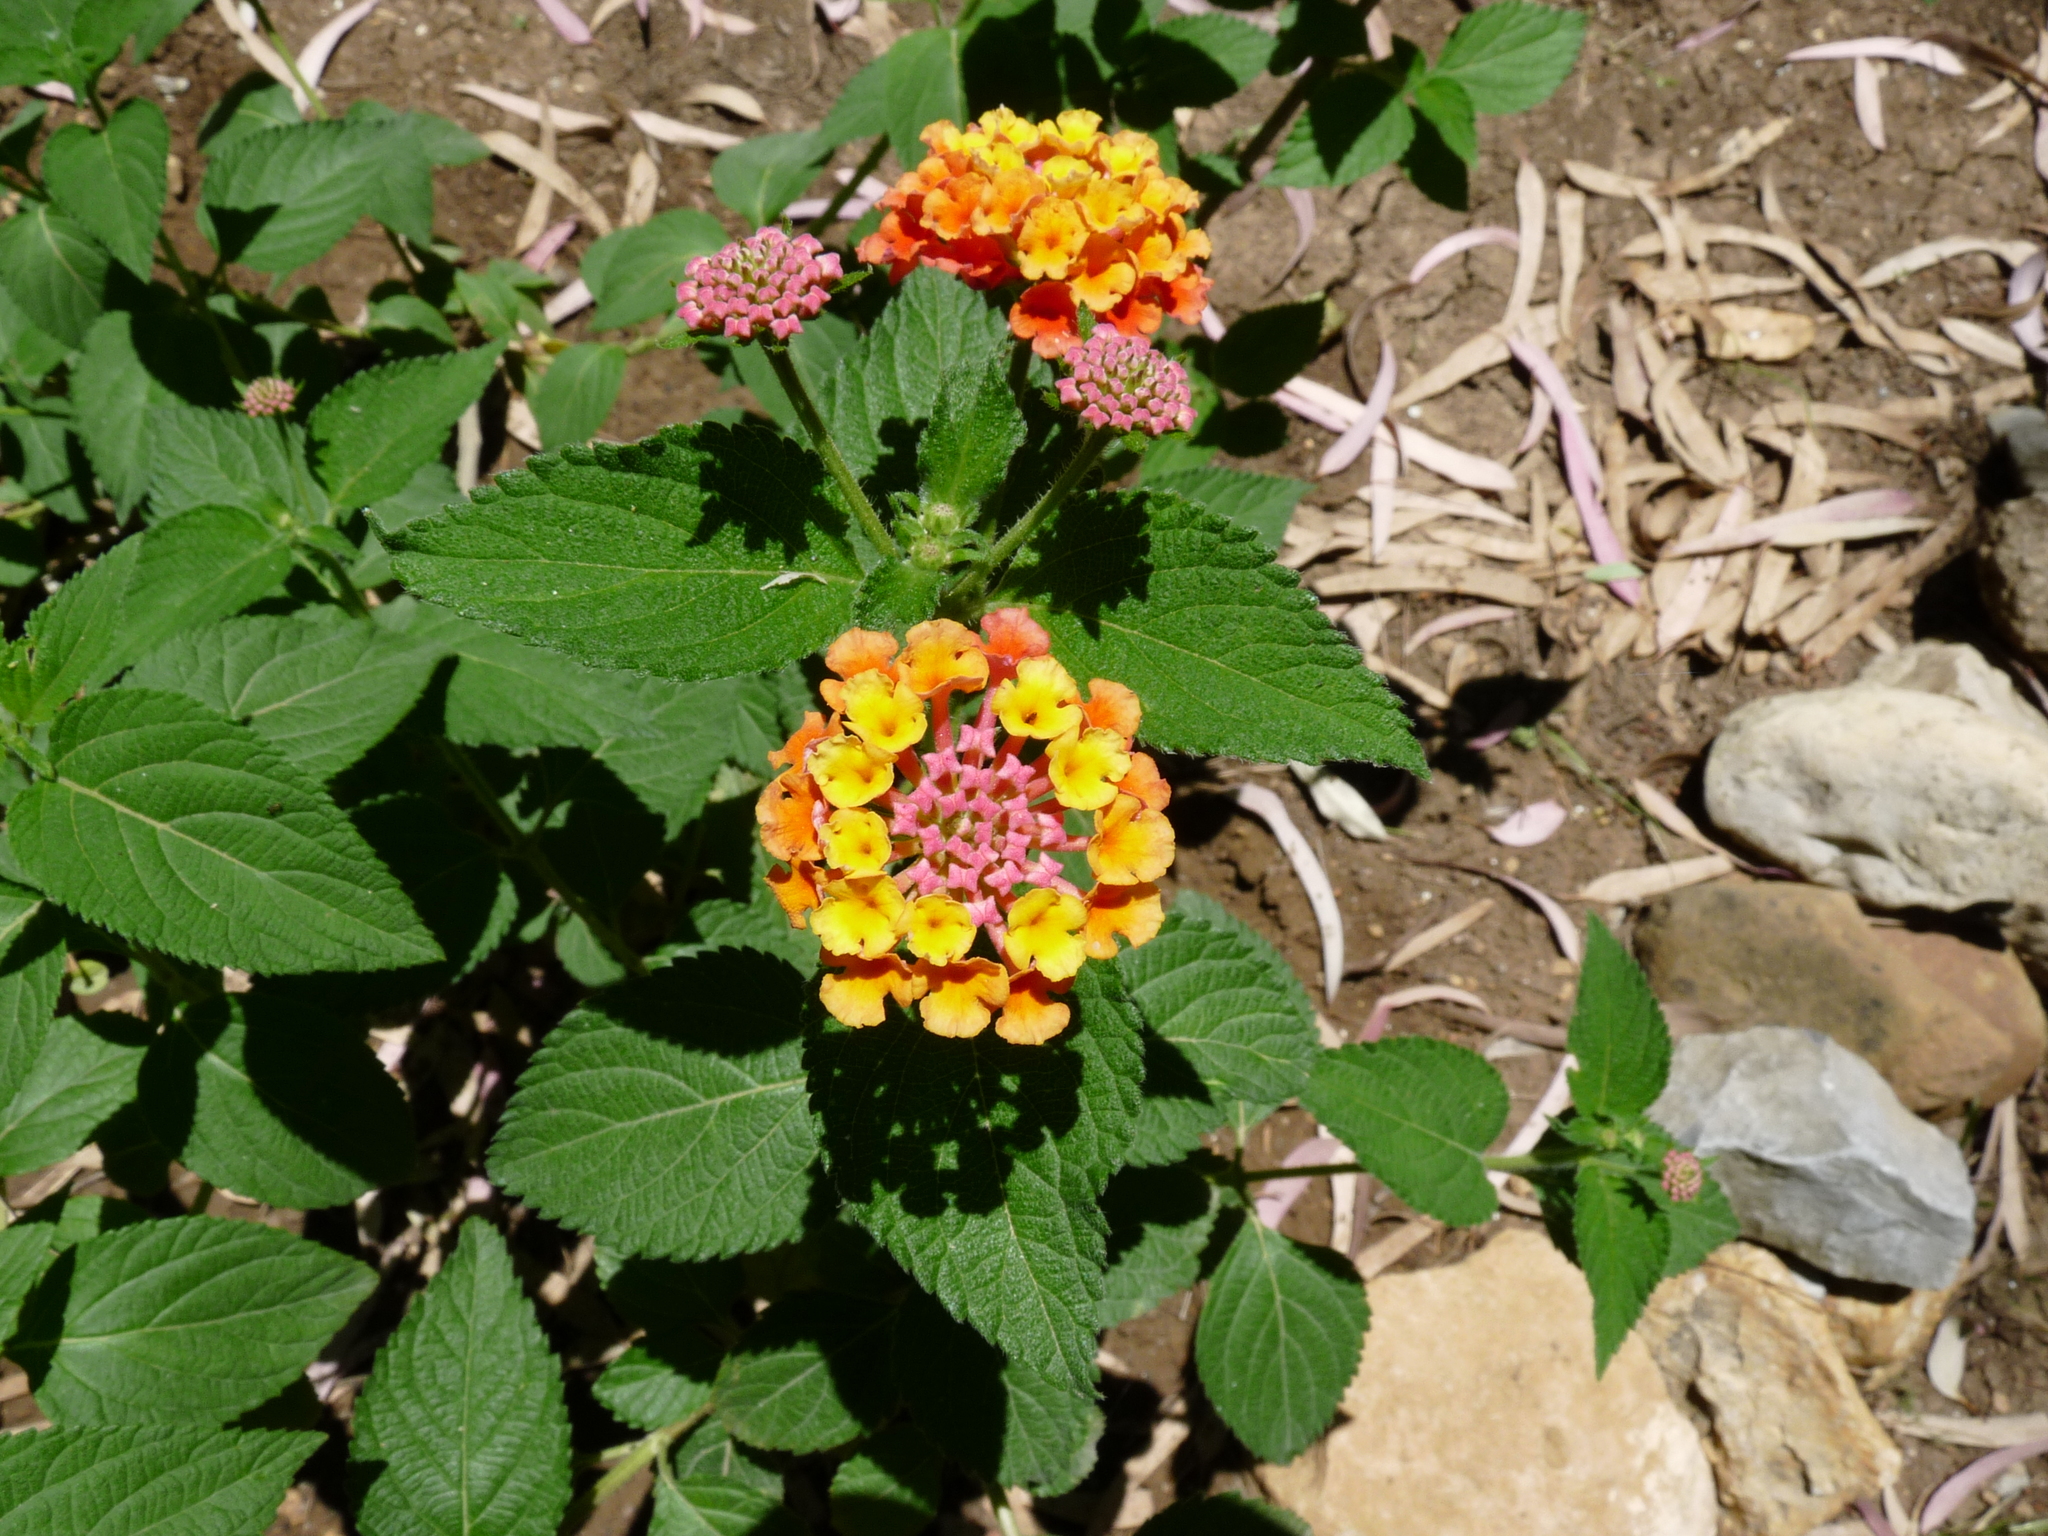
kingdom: Plantae
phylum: Tracheophyta
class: Magnoliopsida
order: Lamiales
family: Verbenaceae
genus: Lantana
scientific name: Lantana camara
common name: Lantana
